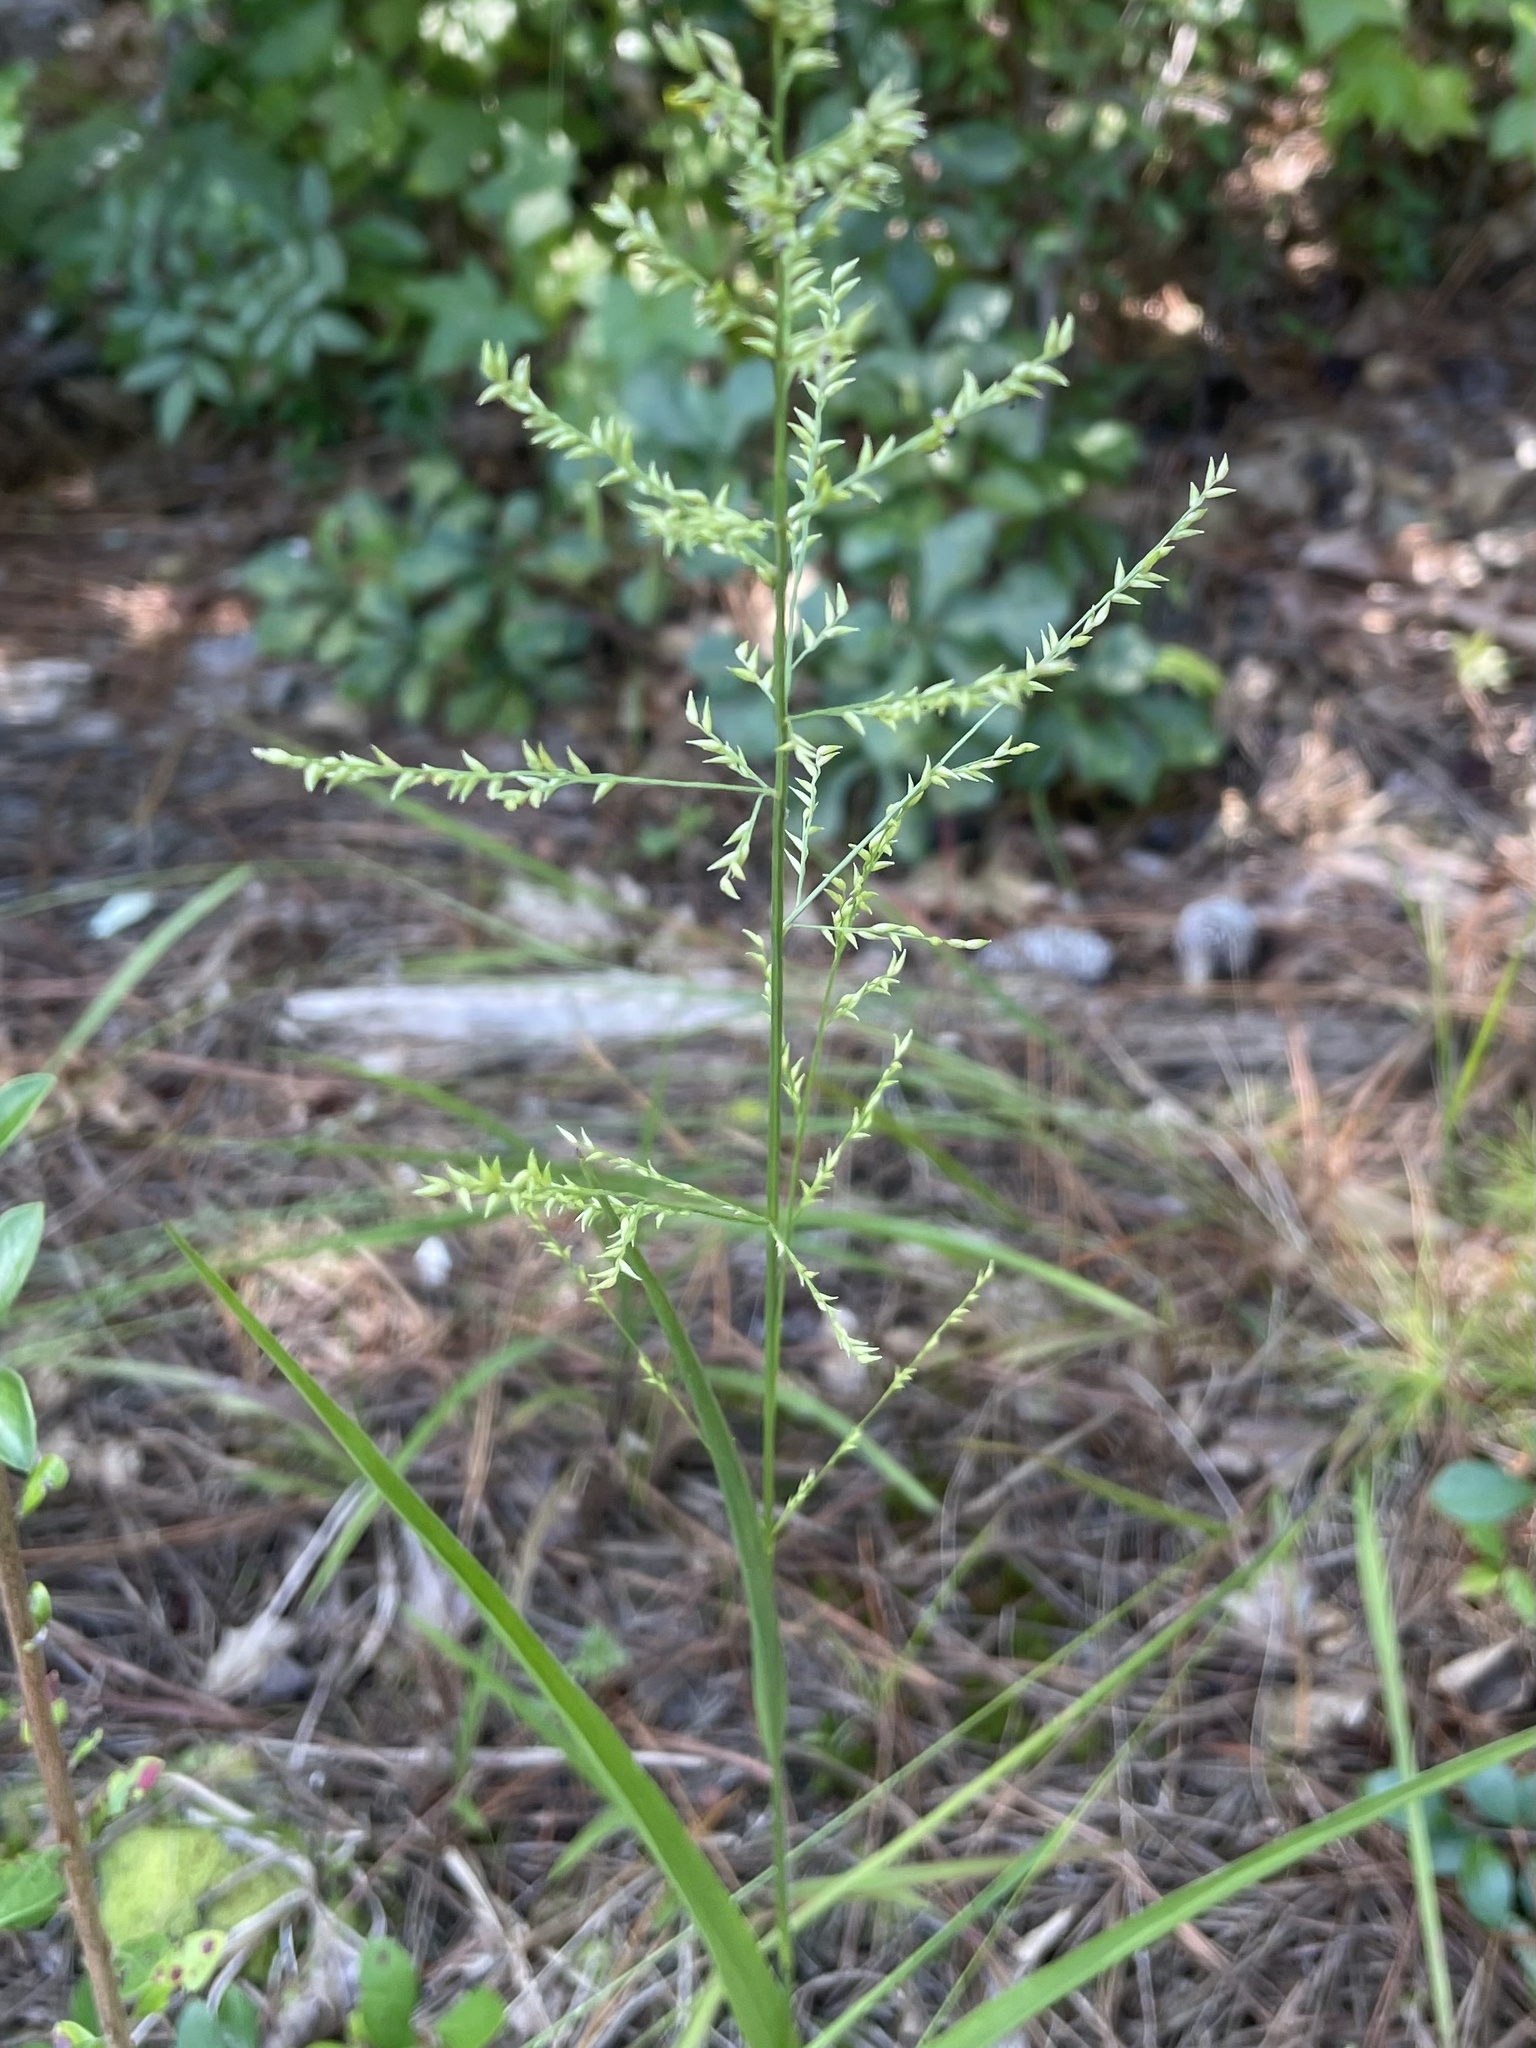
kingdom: Plantae
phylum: Tracheophyta
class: Liliopsida
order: Poales
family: Poaceae
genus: Coleataenia
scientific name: Coleataenia anceps
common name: Beaked panic grass
